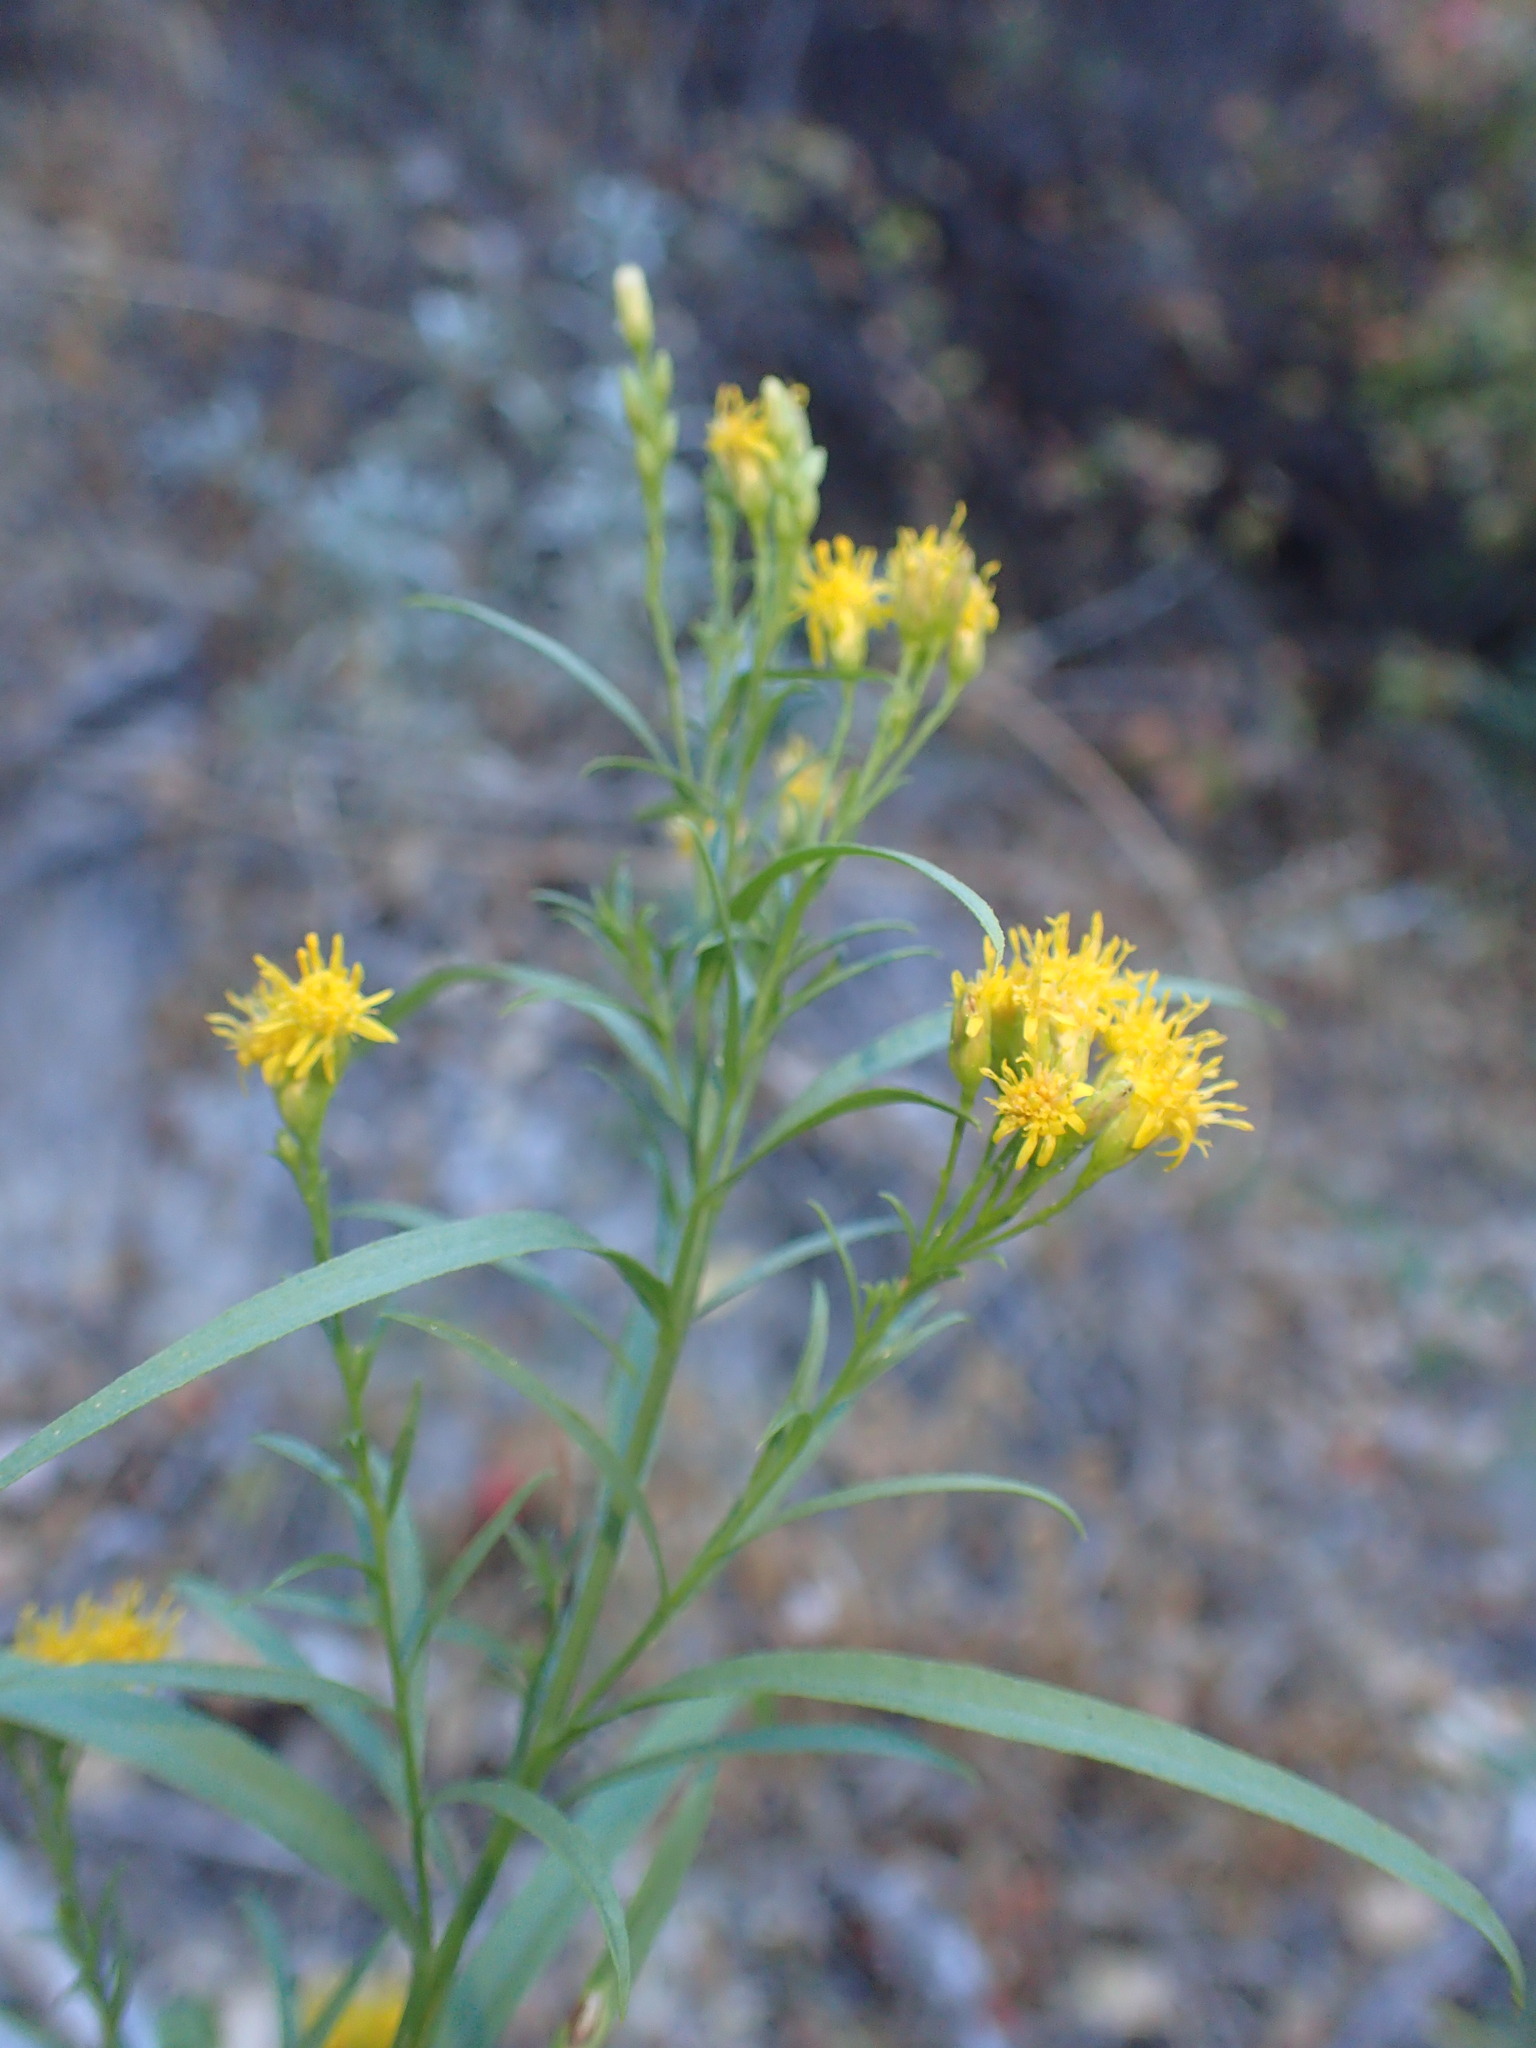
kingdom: Plantae
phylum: Tracheophyta
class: Magnoliopsida
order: Asterales
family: Asteraceae
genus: Euthamia
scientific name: Euthamia occidentalis
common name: Western goldentop
